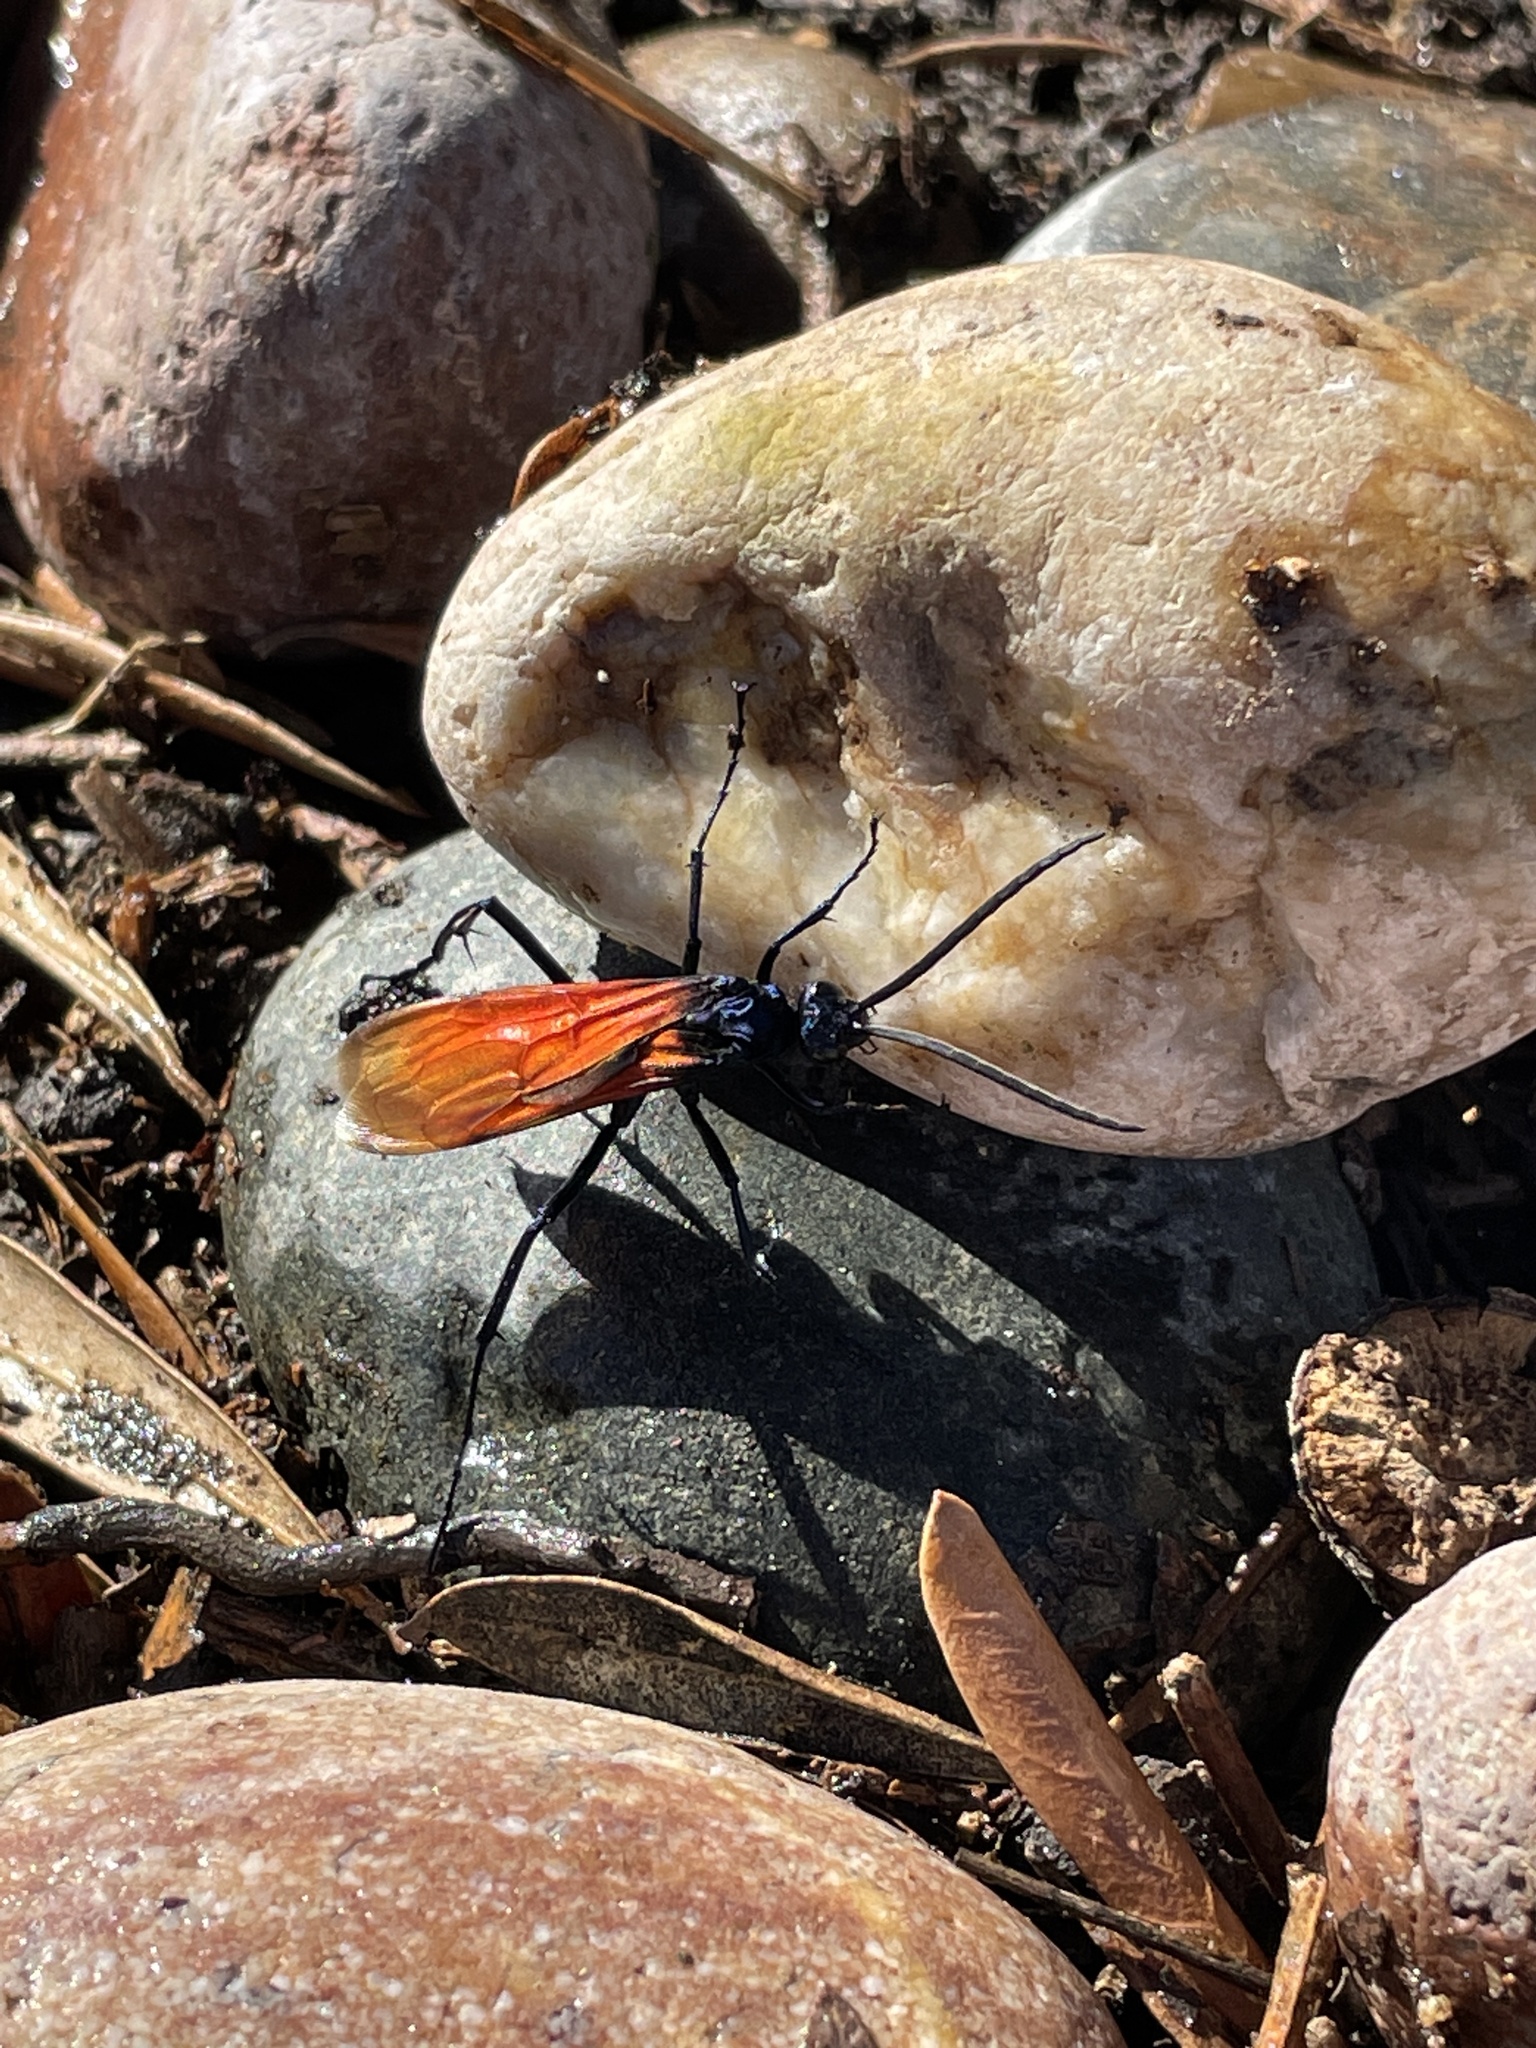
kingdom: Animalia
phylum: Arthropoda
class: Insecta
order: Hymenoptera
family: Pompilidae
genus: Pepsis
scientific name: Pepsis thisbe
